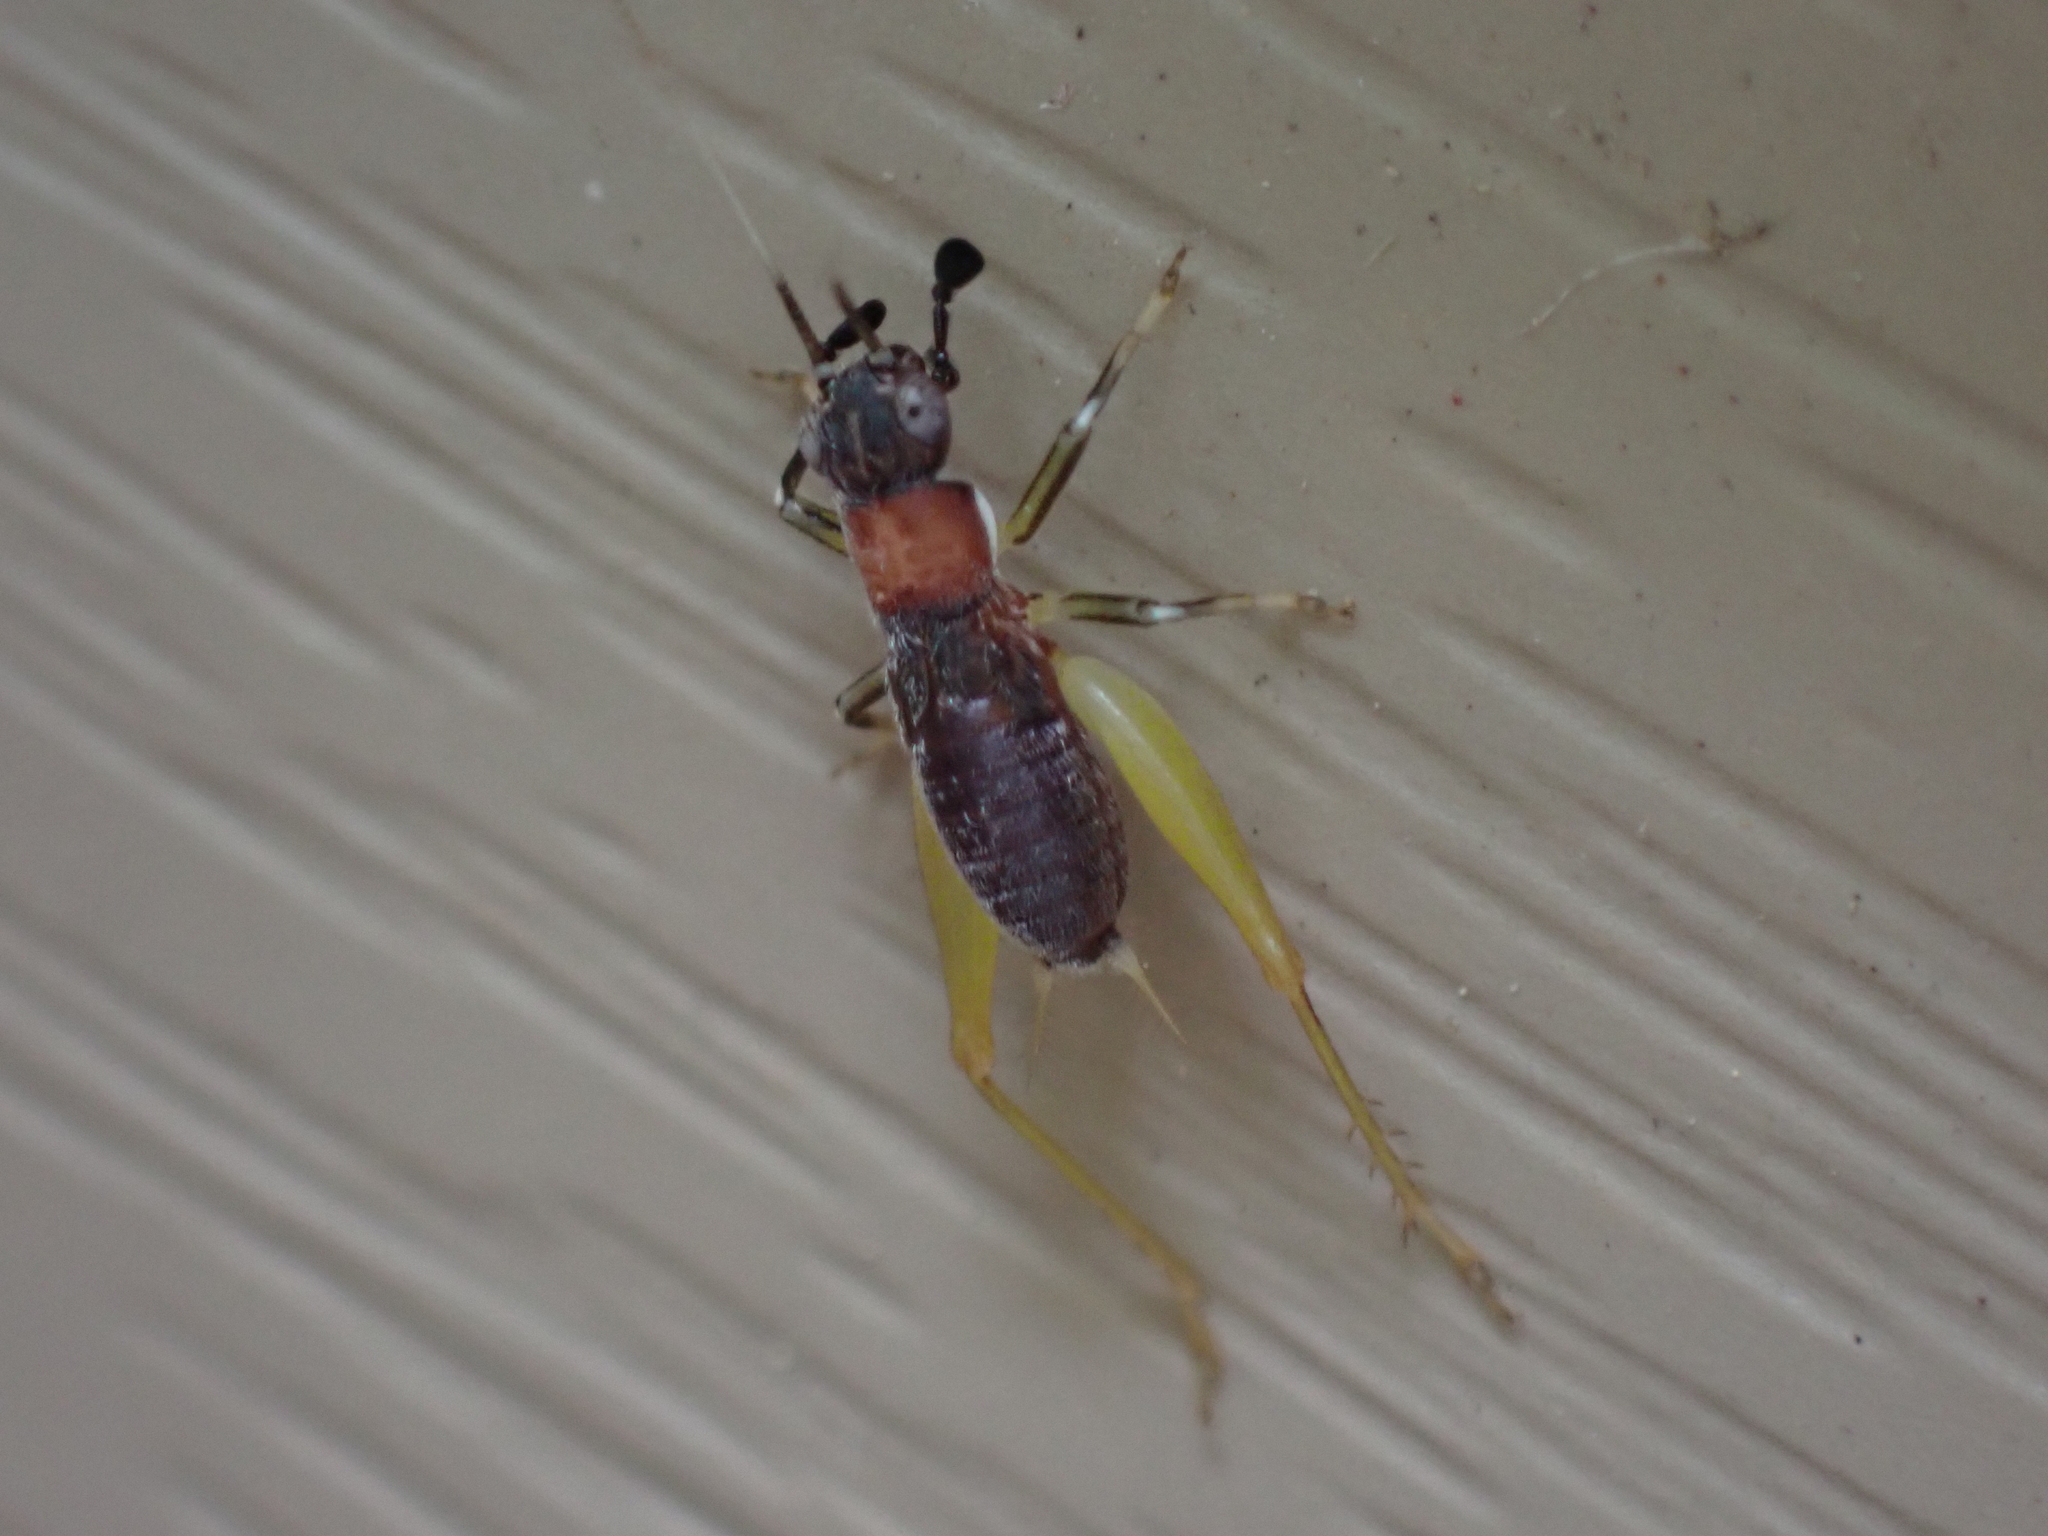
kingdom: Animalia
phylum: Arthropoda
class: Insecta
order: Orthoptera
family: Trigonidiidae
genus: Phyllopalpus
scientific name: Phyllopalpus pulchellus
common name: Handsome trig
